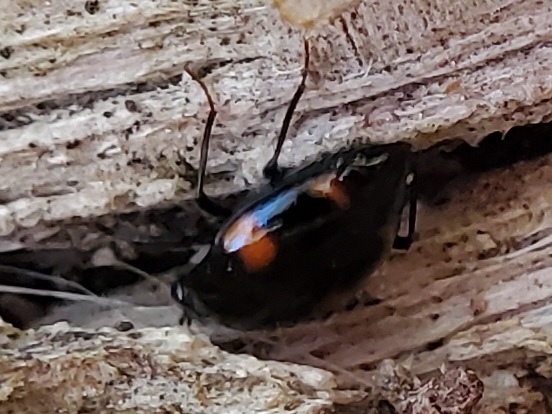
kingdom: Animalia
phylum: Arthropoda
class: Insecta
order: Coleoptera
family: Staphylinidae
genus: Scaphidium
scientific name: Scaphidium quadriguttatum
